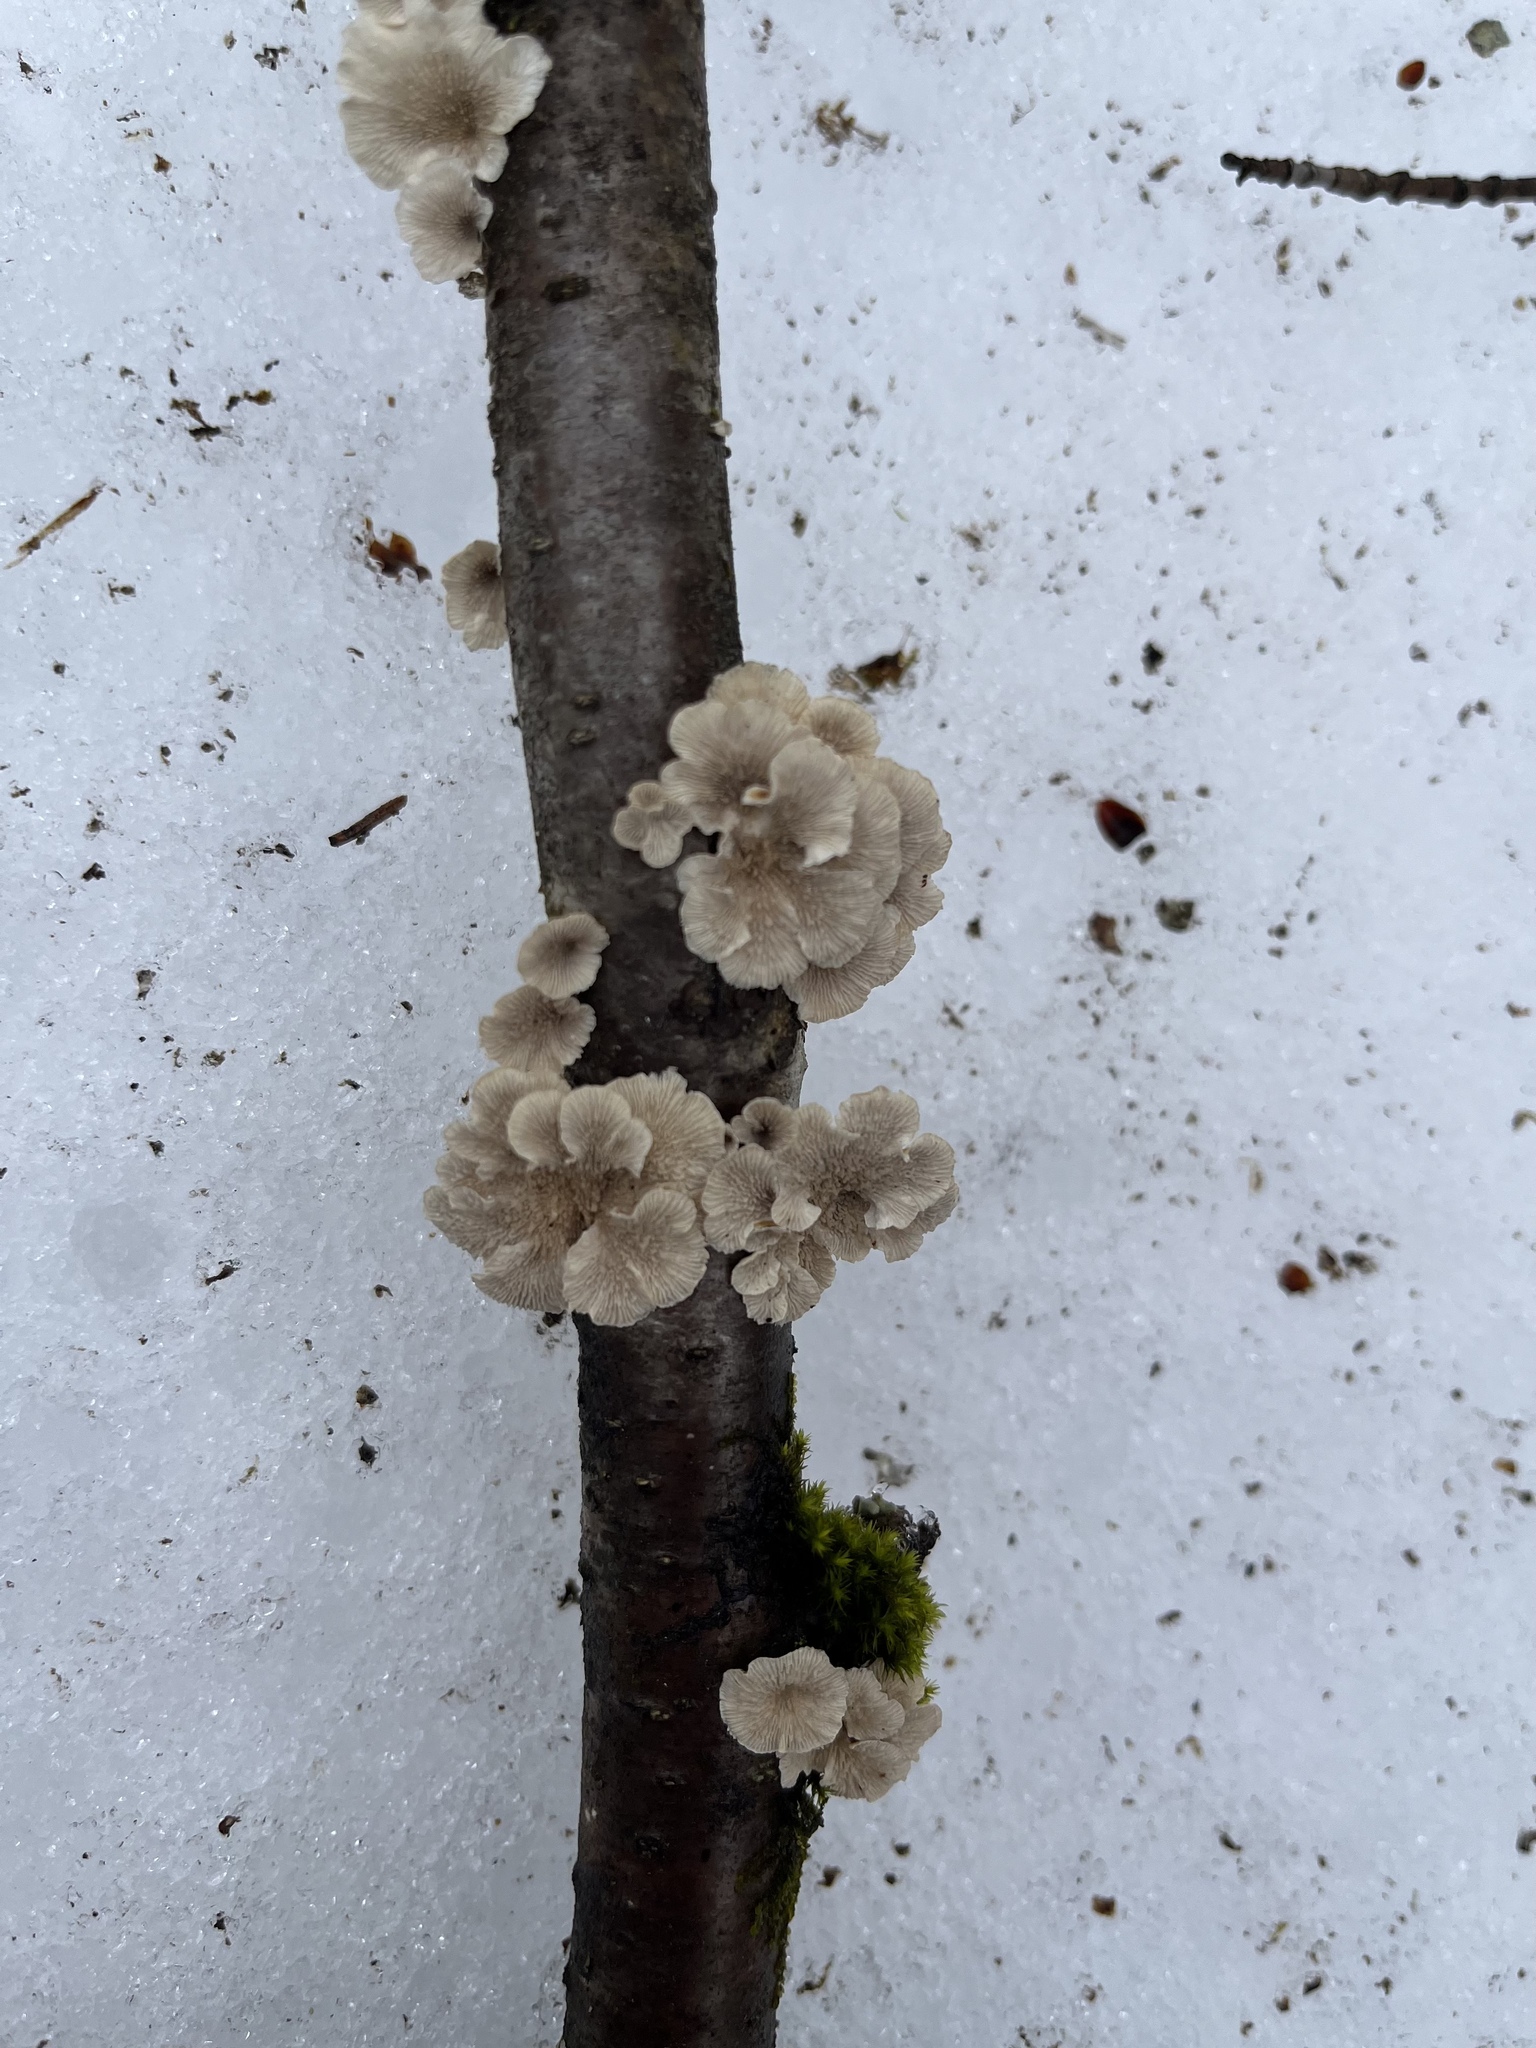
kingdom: Fungi
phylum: Basidiomycota
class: Agaricomycetes
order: Amylocorticiales
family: Amylocorticiaceae
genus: Plicaturopsis
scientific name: Plicaturopsis crispa
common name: Crimped gill
